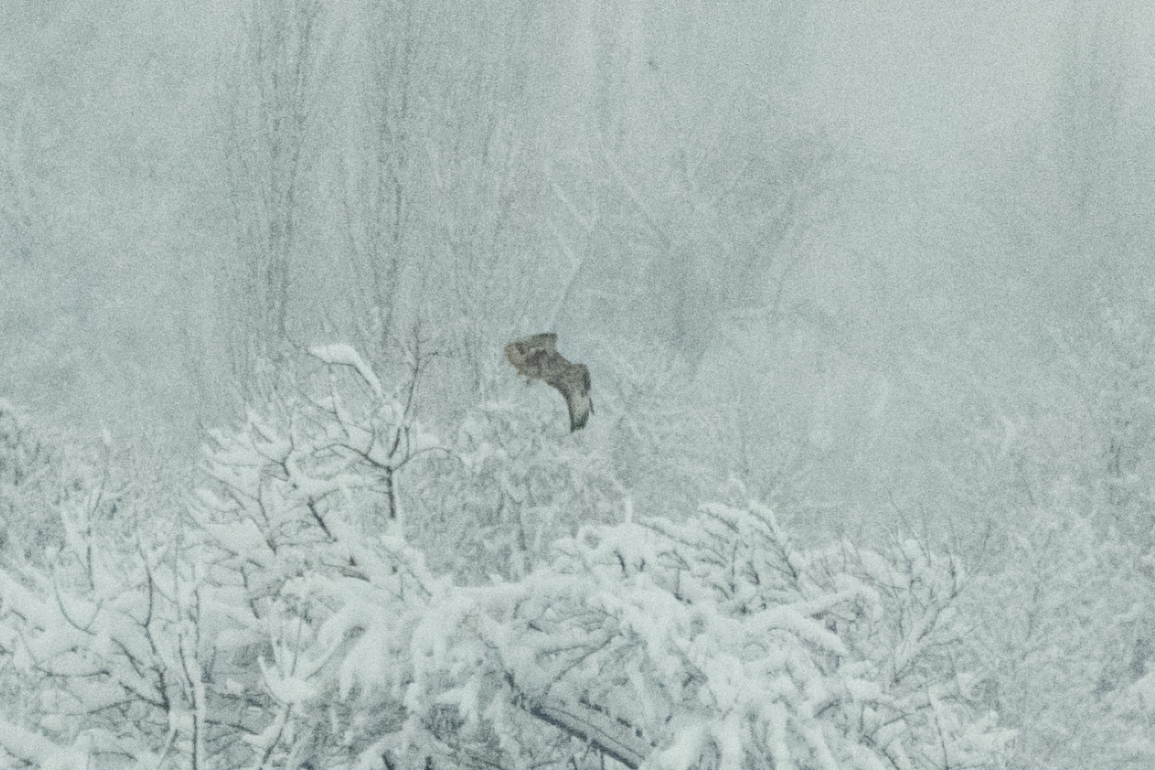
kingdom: Animalia
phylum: Chordata
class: Aves
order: Accipitriformes
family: Accipitridae
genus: Buteo
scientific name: Buteo rufinus
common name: Long-legged buzzard
